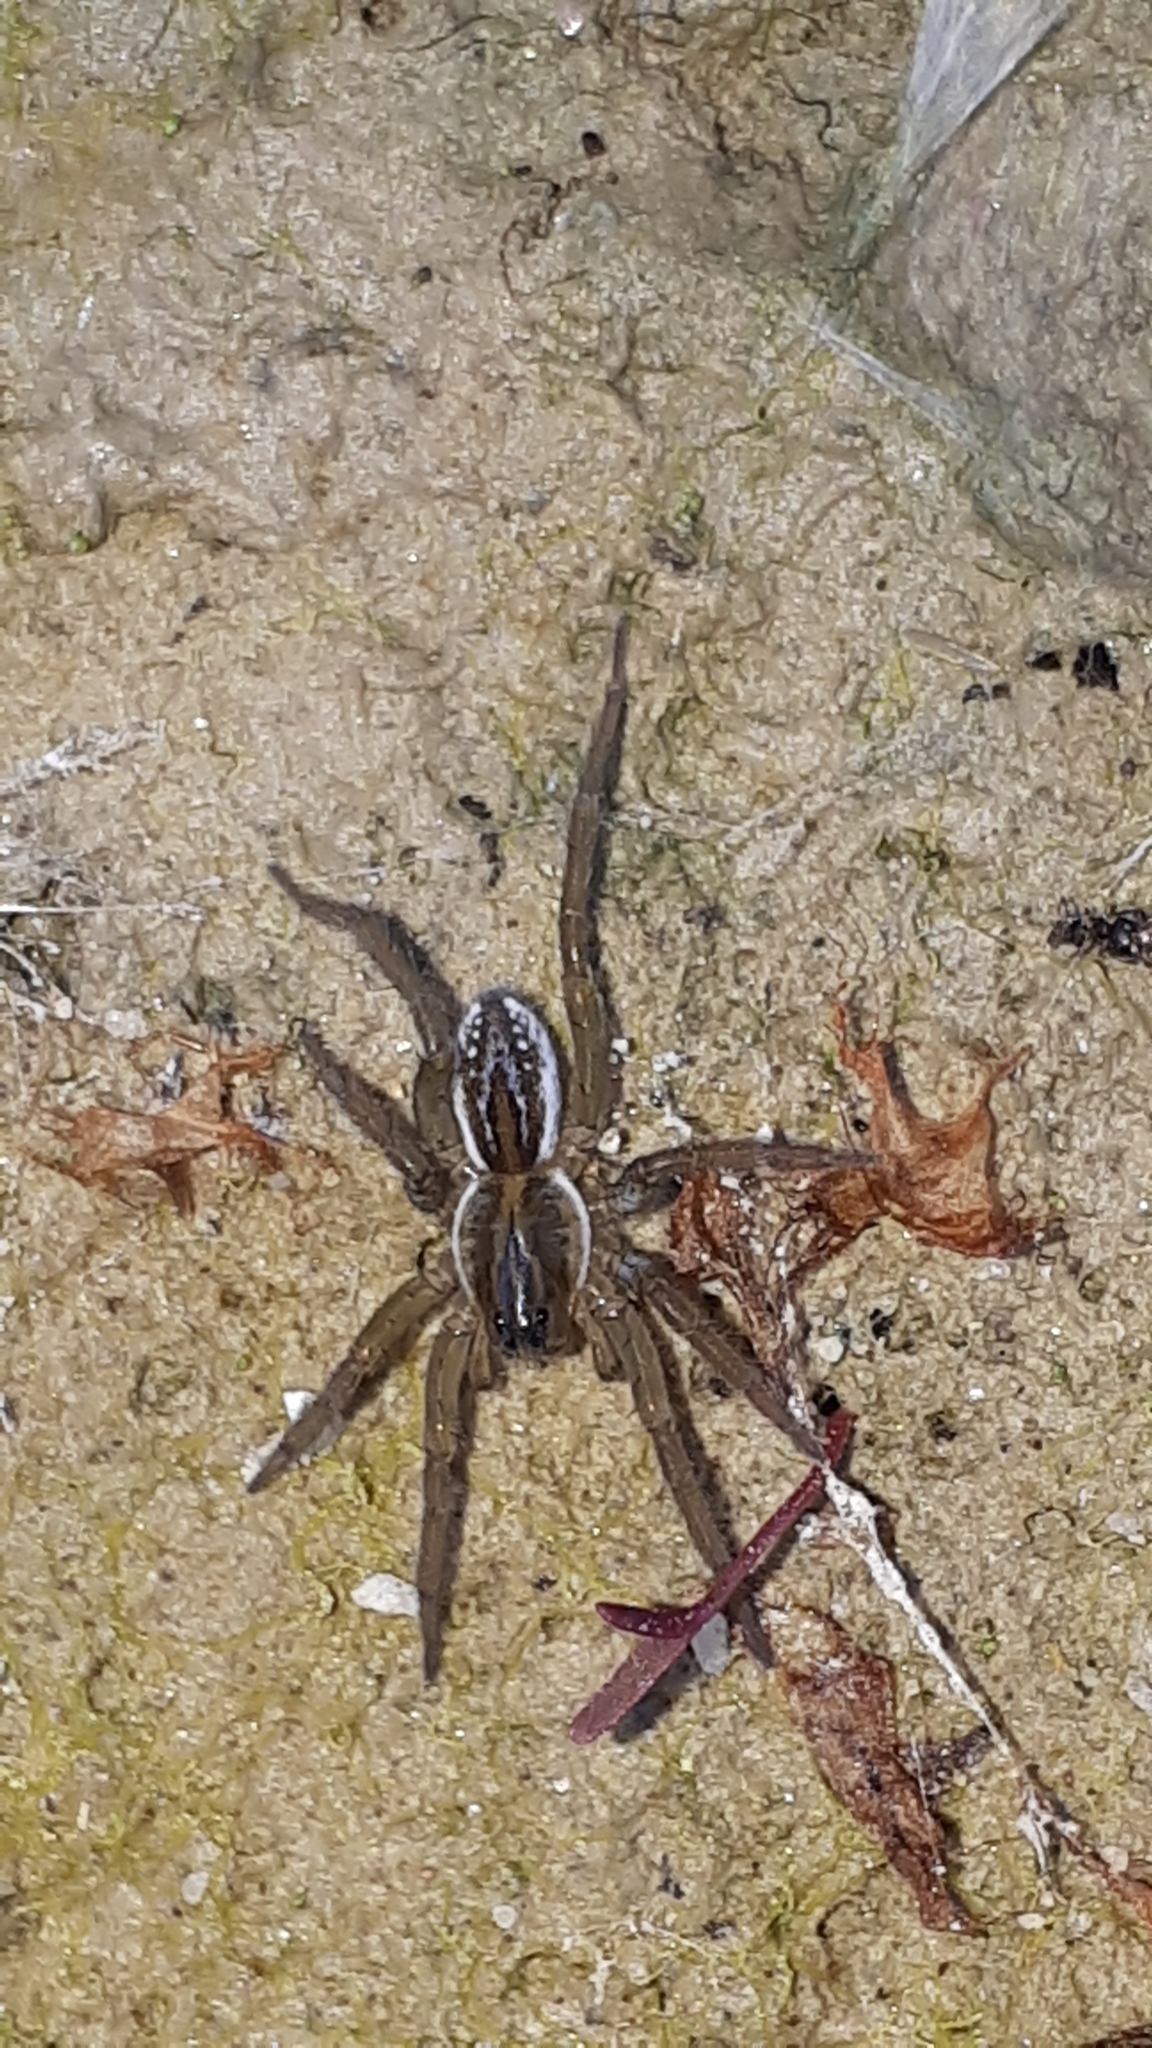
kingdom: Animalia
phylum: Arthropoda
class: Arachnida
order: Araneae
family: Lycosidae
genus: Pirata
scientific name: Pirata piraticus
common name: Pirate otter spider
